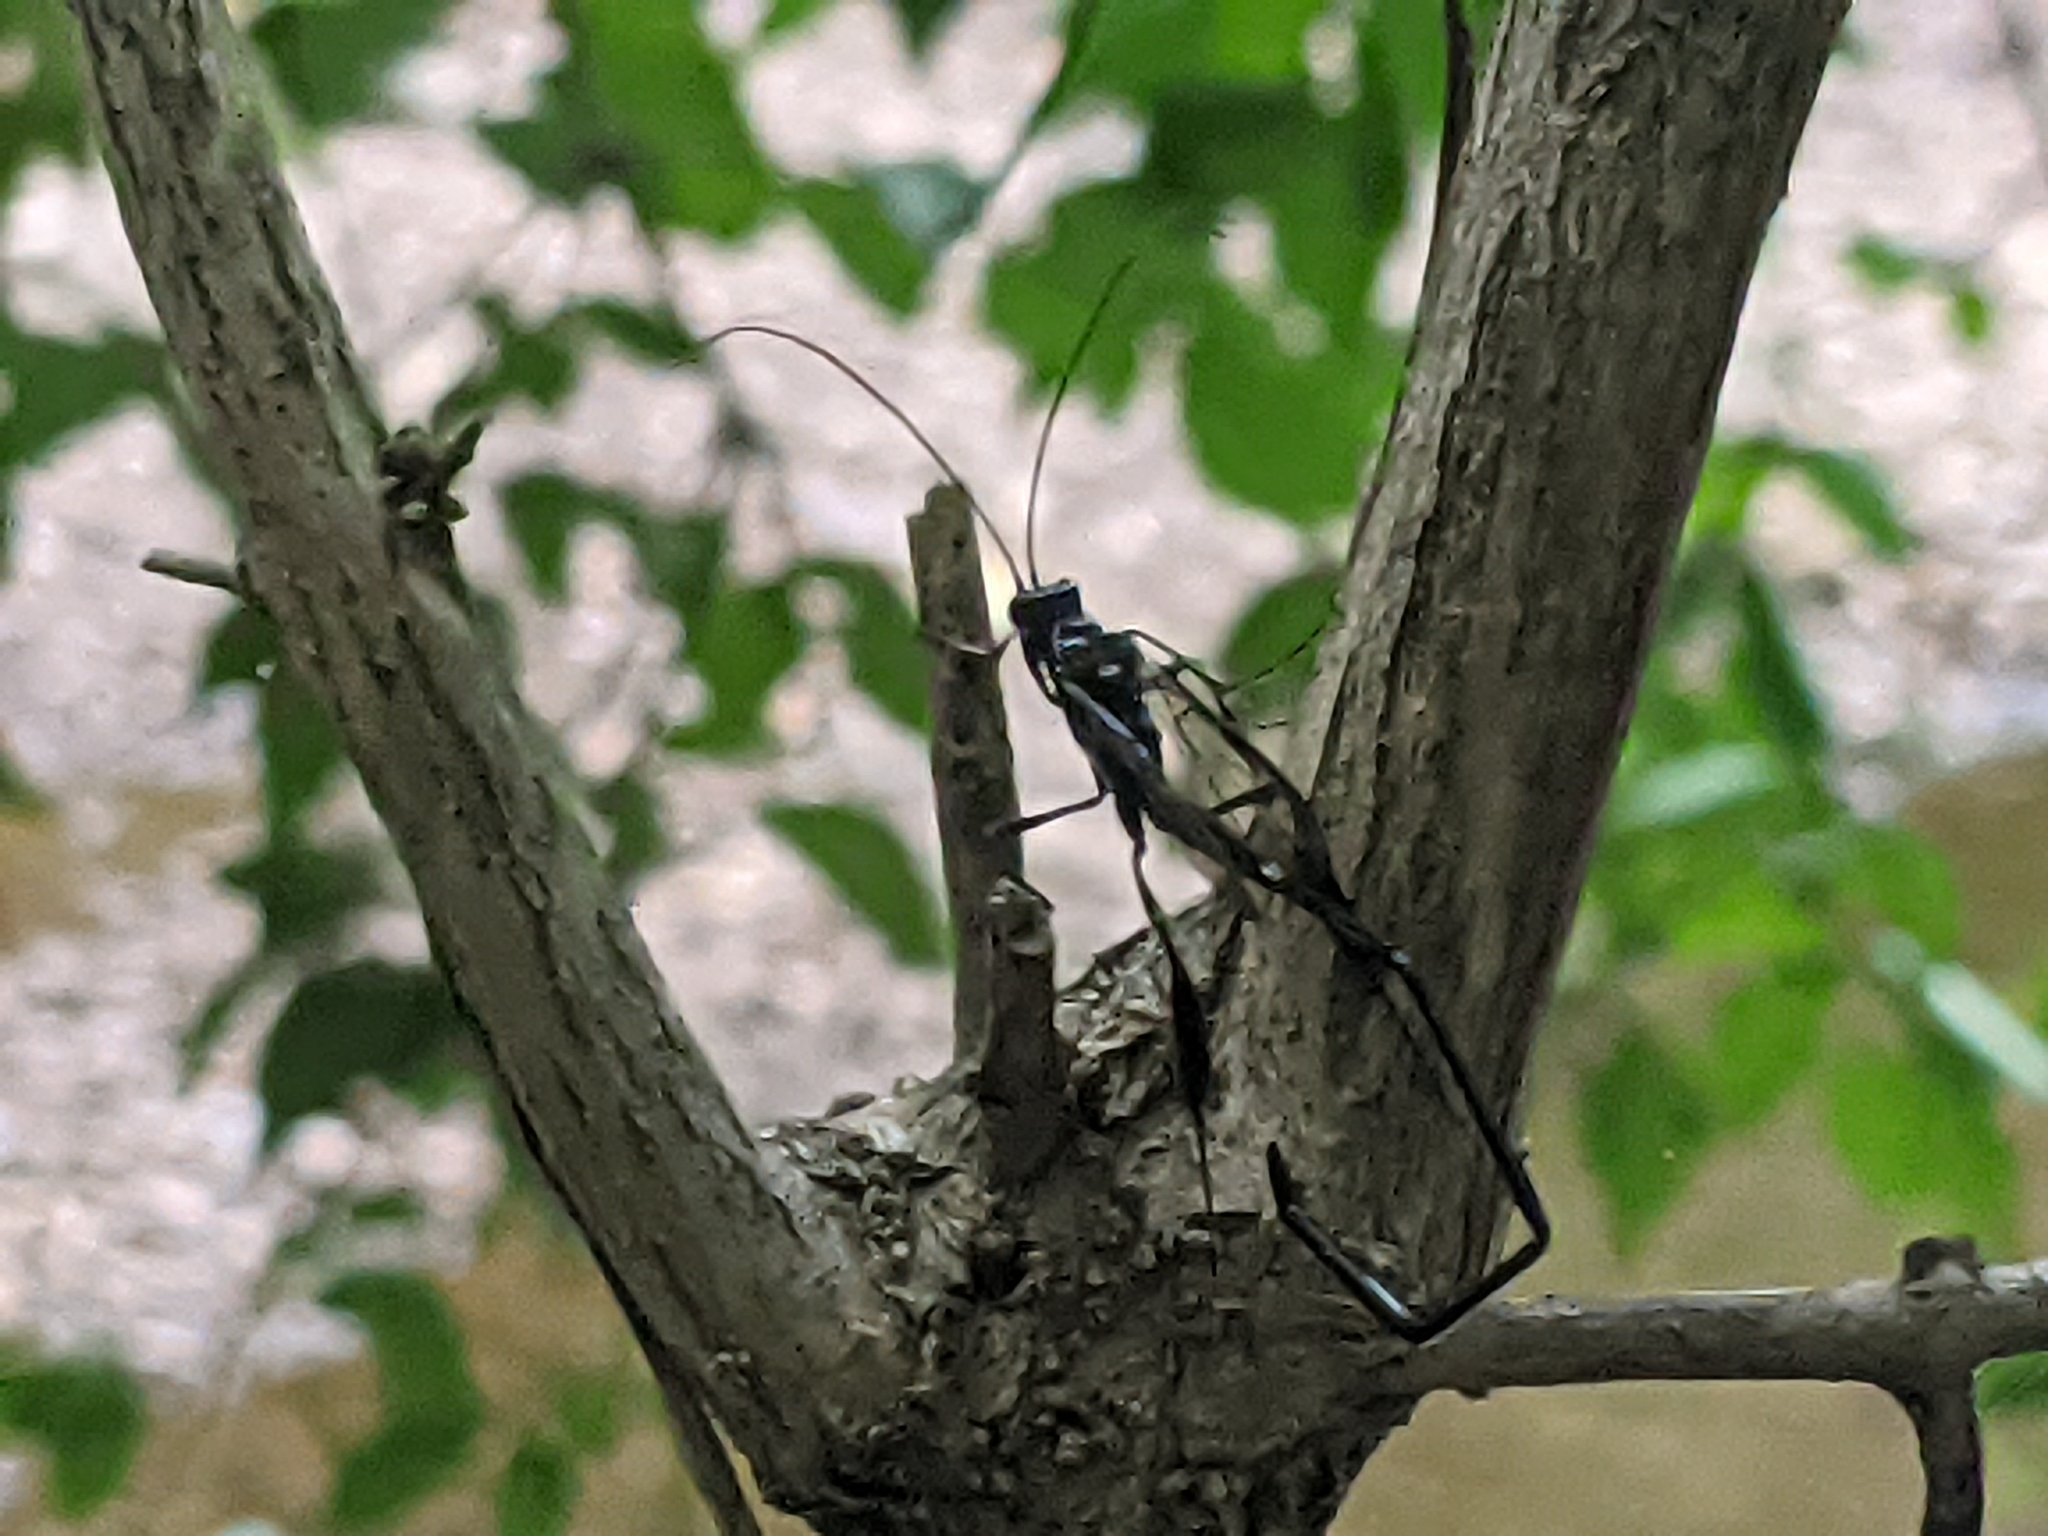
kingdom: Animalia
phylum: Arthropoda
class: Insecta
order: Hymenoptera
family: Pelecinidae
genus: Pelecinus
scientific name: Pelecinus polyturator
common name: American pelecinid wasp
